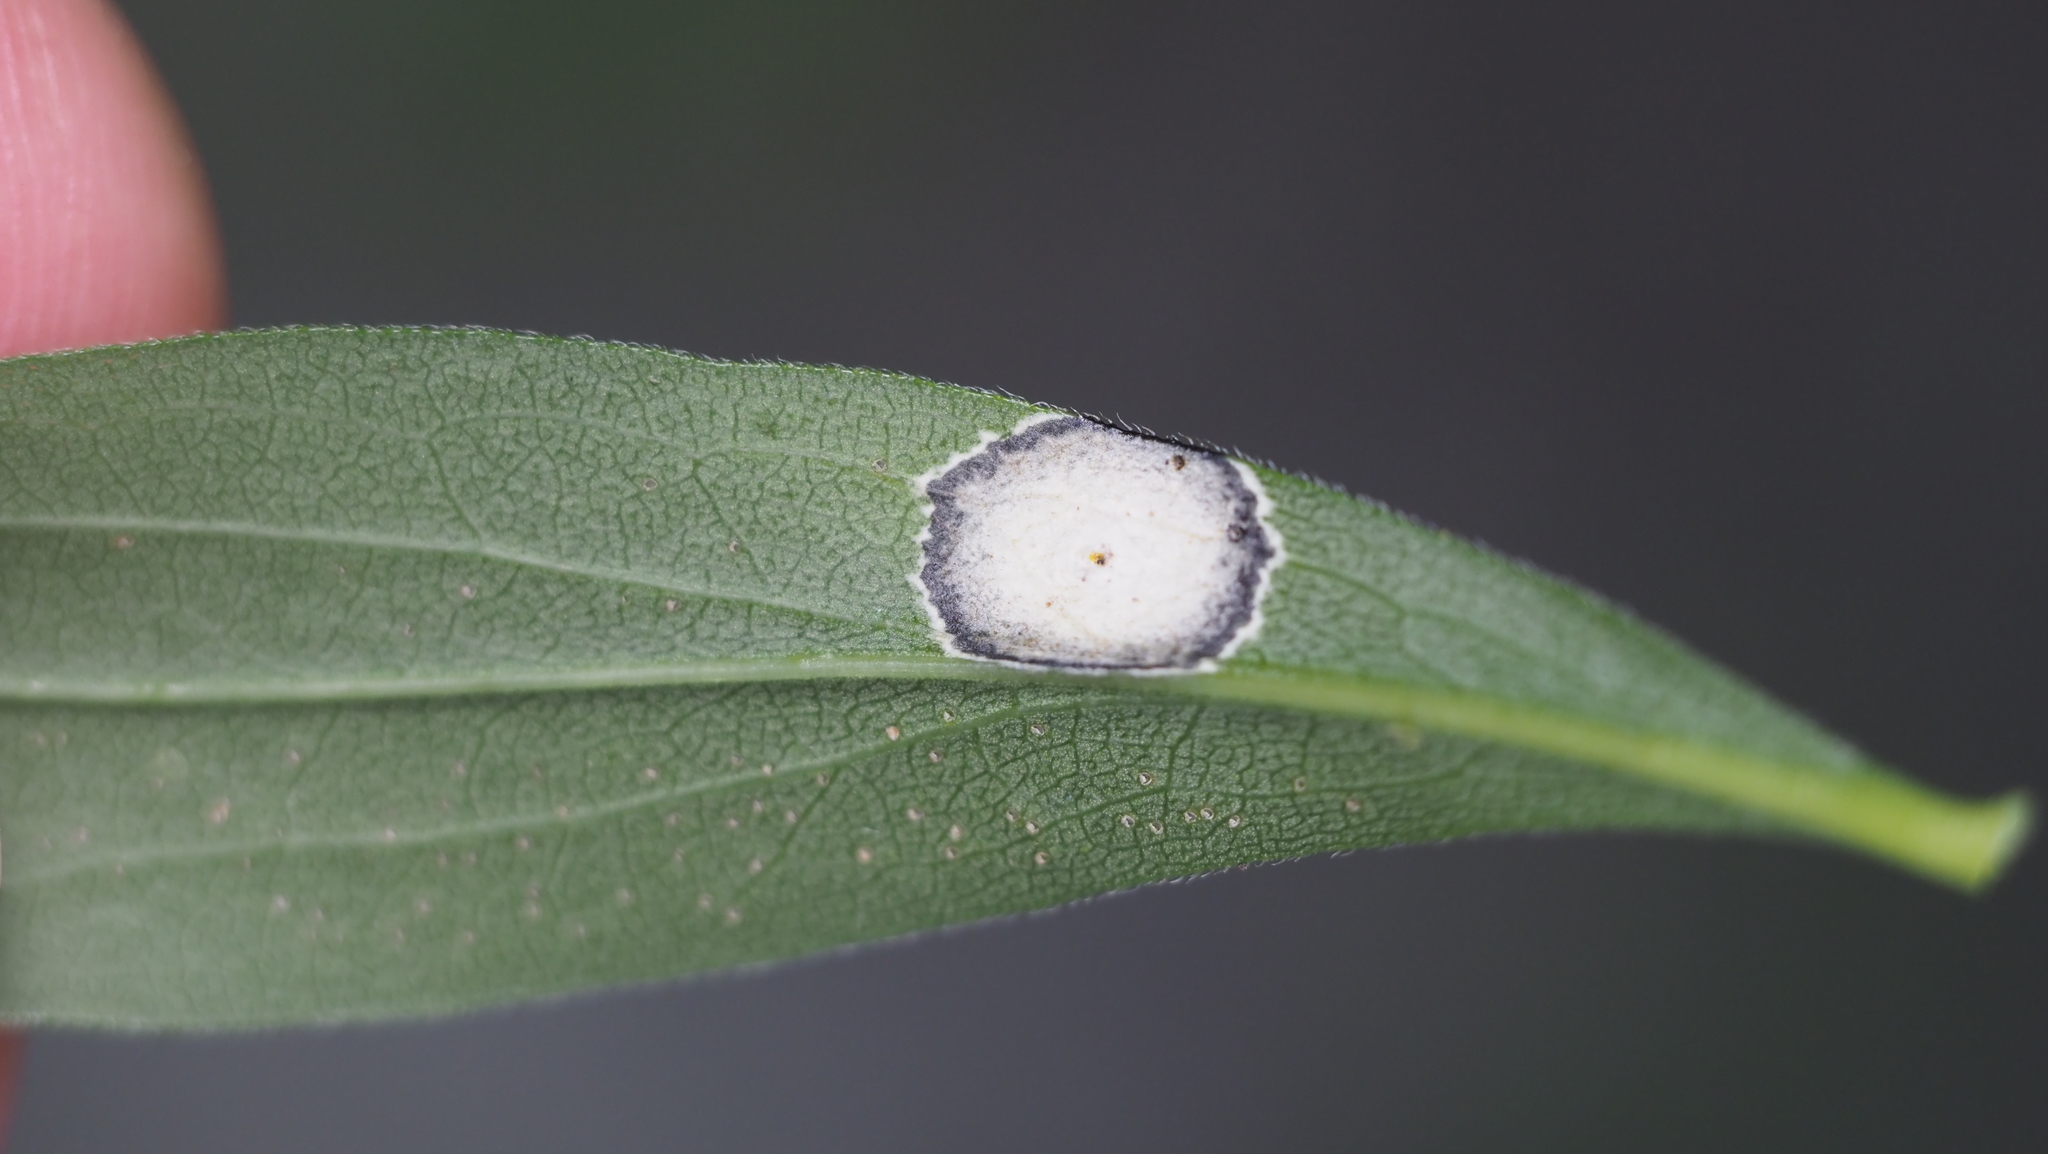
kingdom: Animalia
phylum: Arthropoda
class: Insecta
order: Diptera
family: Cecidomyiidae
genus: Asteromyia
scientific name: Asteromyia carbonifera
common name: Carbonifera goldenrod gall midge
